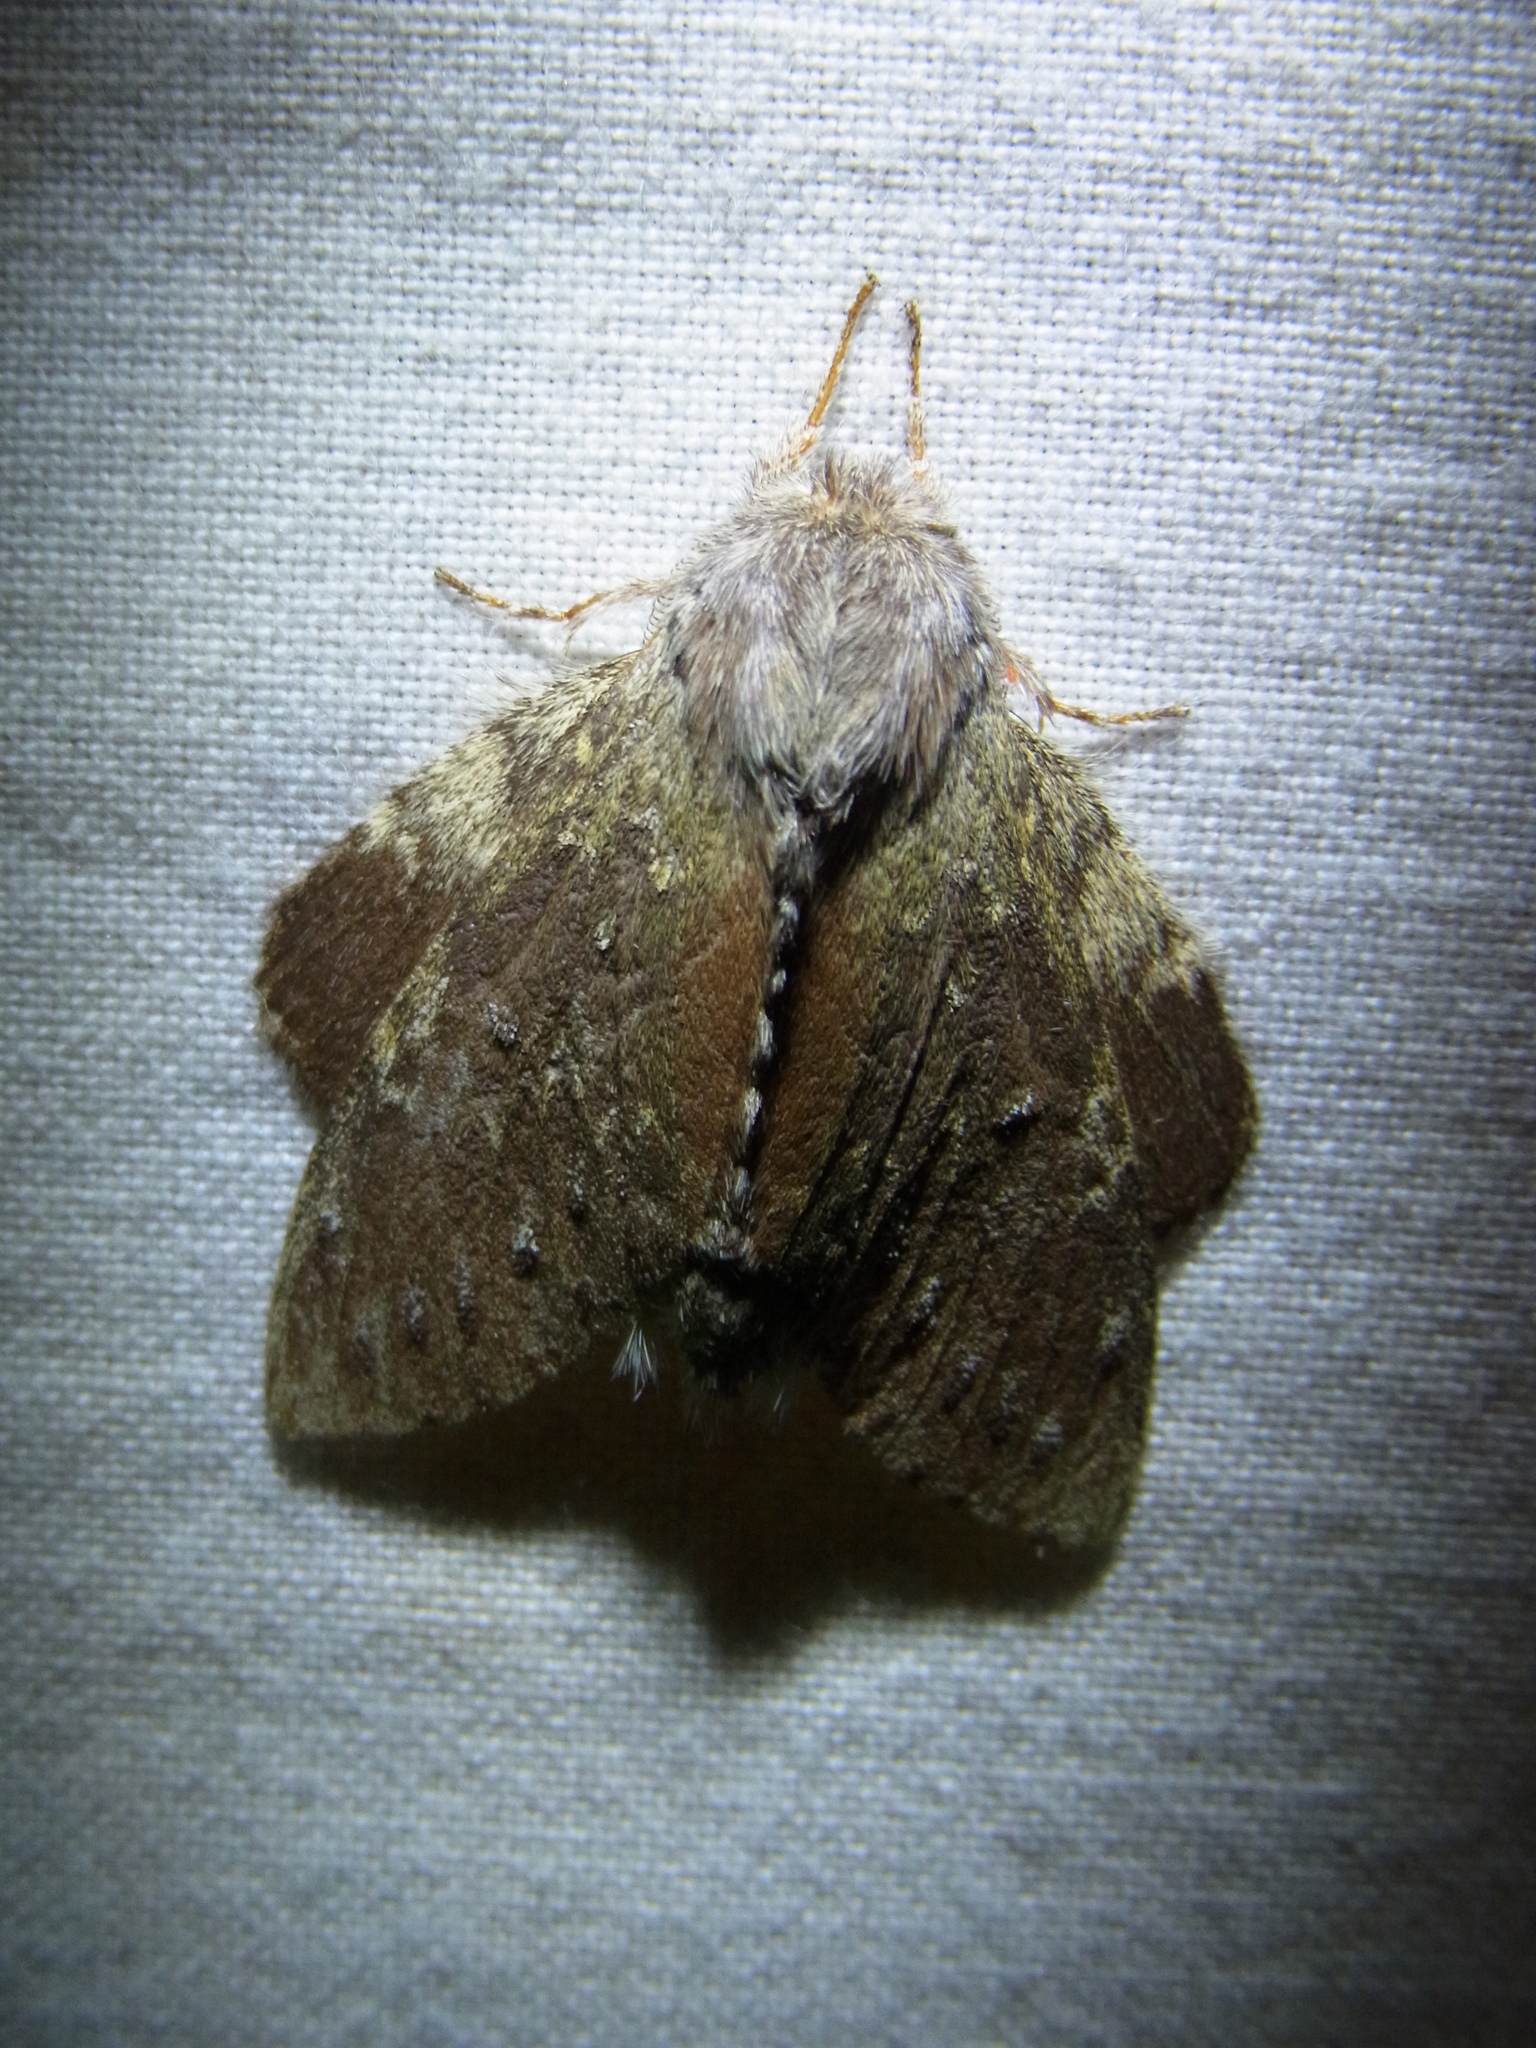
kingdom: Animalia
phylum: Arthropoda
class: Insecta
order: Lepidoptera
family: Notodontidae
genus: Stauropus
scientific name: Stauropus fagi
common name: Lobster moth
